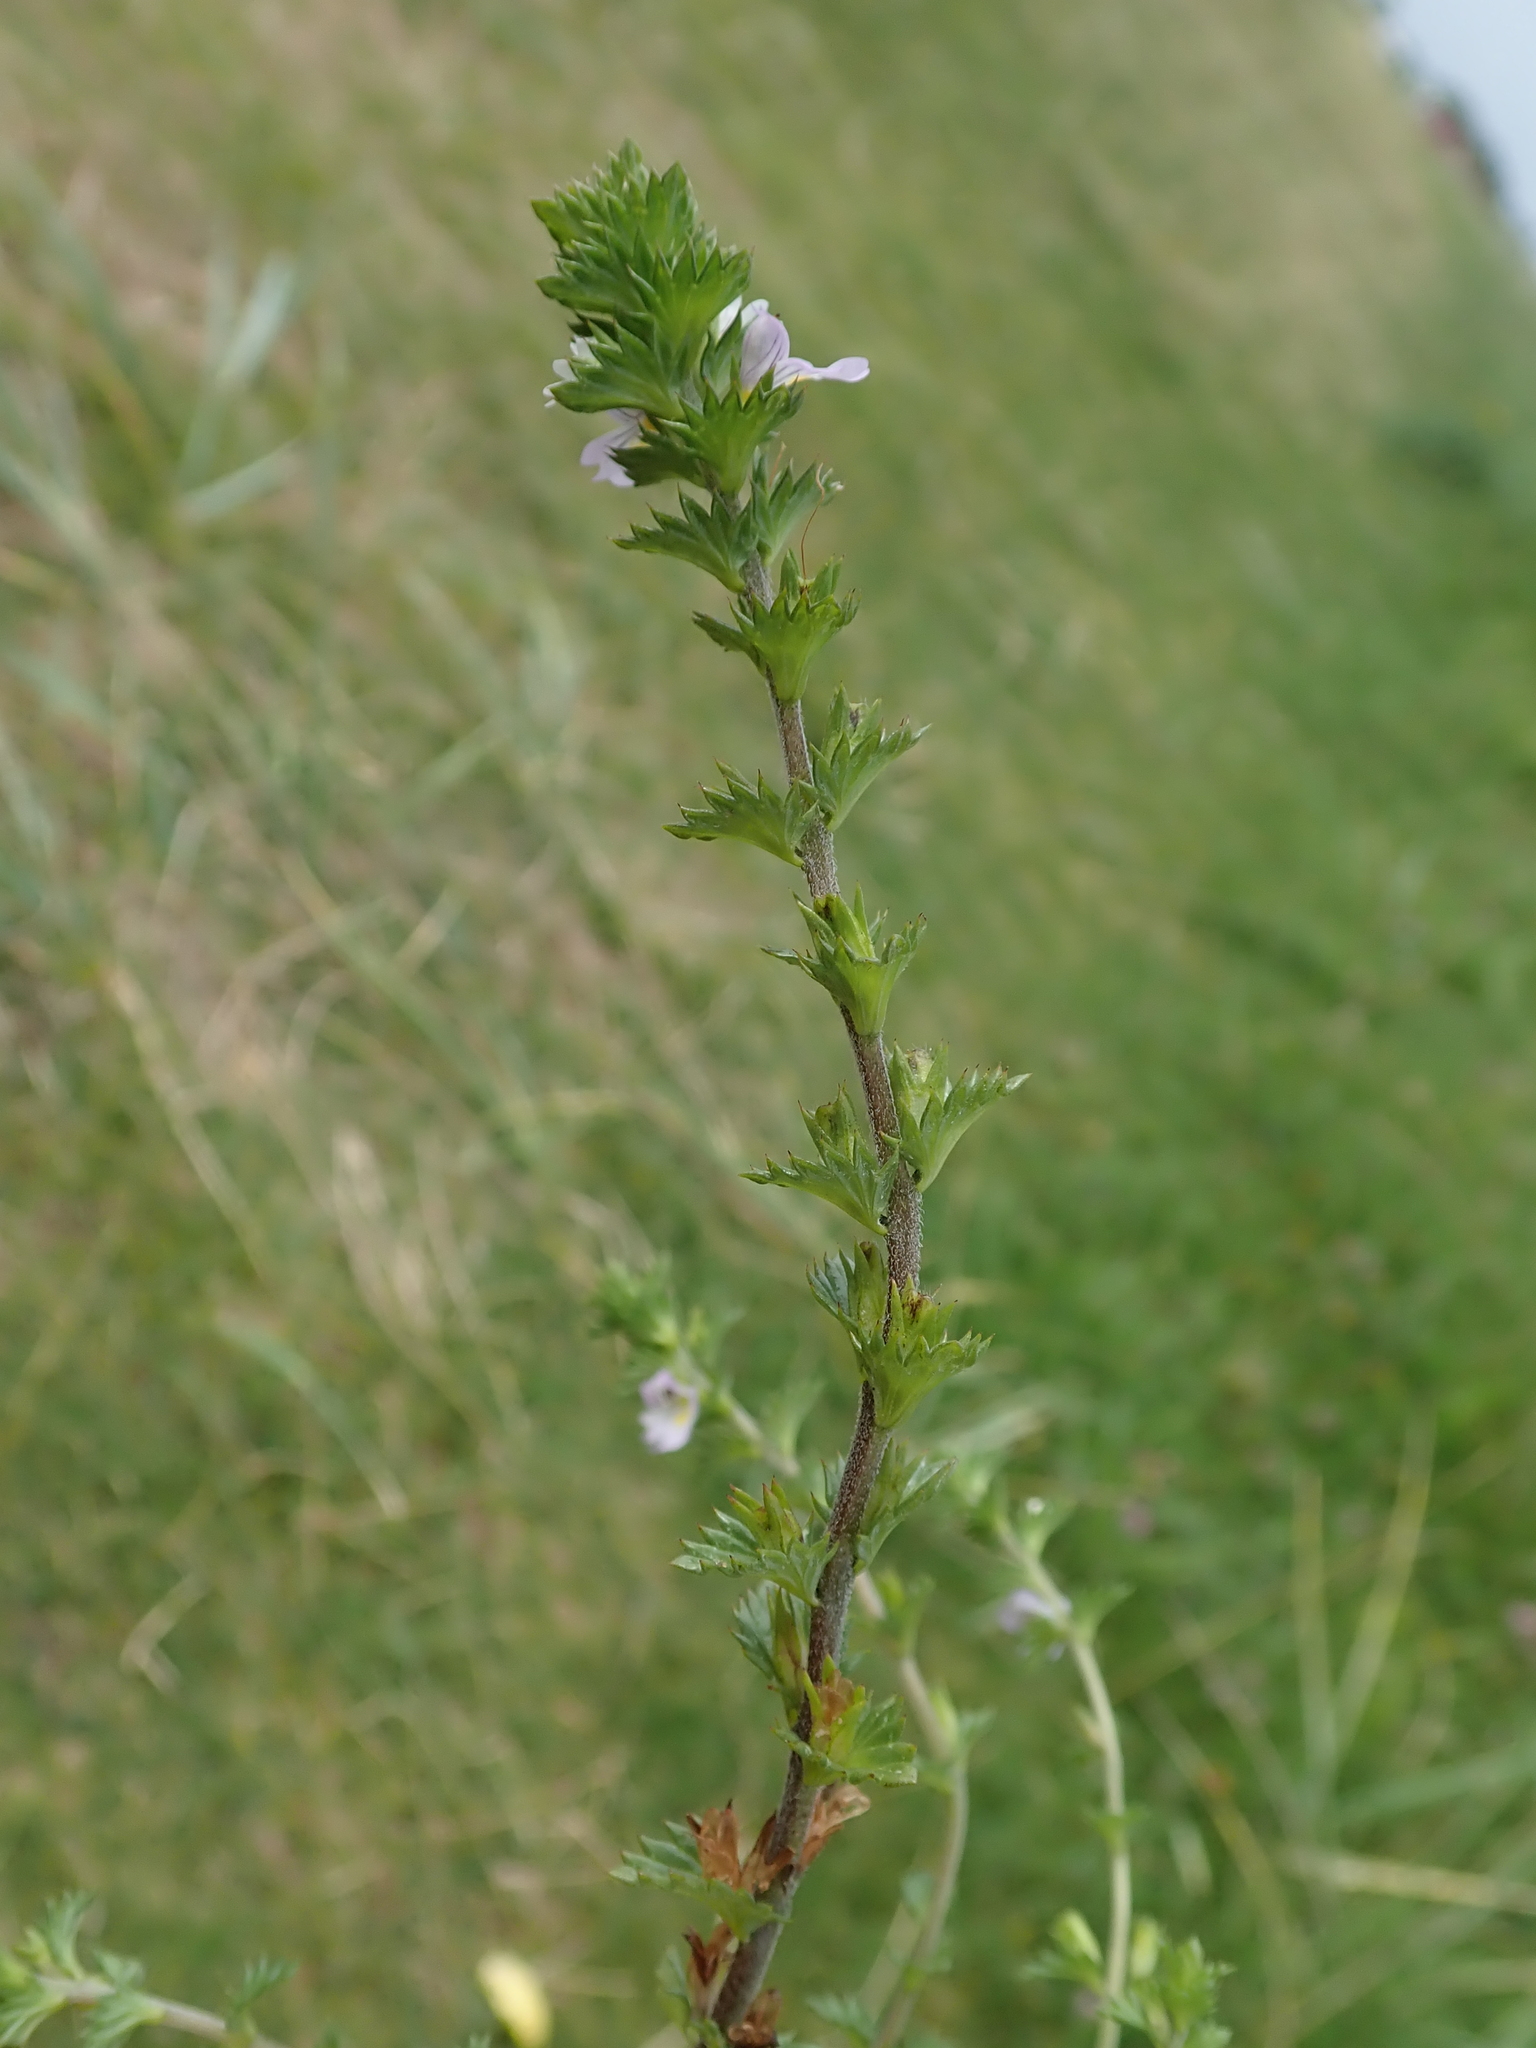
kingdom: Plantae
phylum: Tracheophyta
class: Magnoliopsida
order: Lamiales
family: Orobanchaceae
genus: Euphrasia
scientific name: Euphrasia nemorosa
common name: Common eyebright
